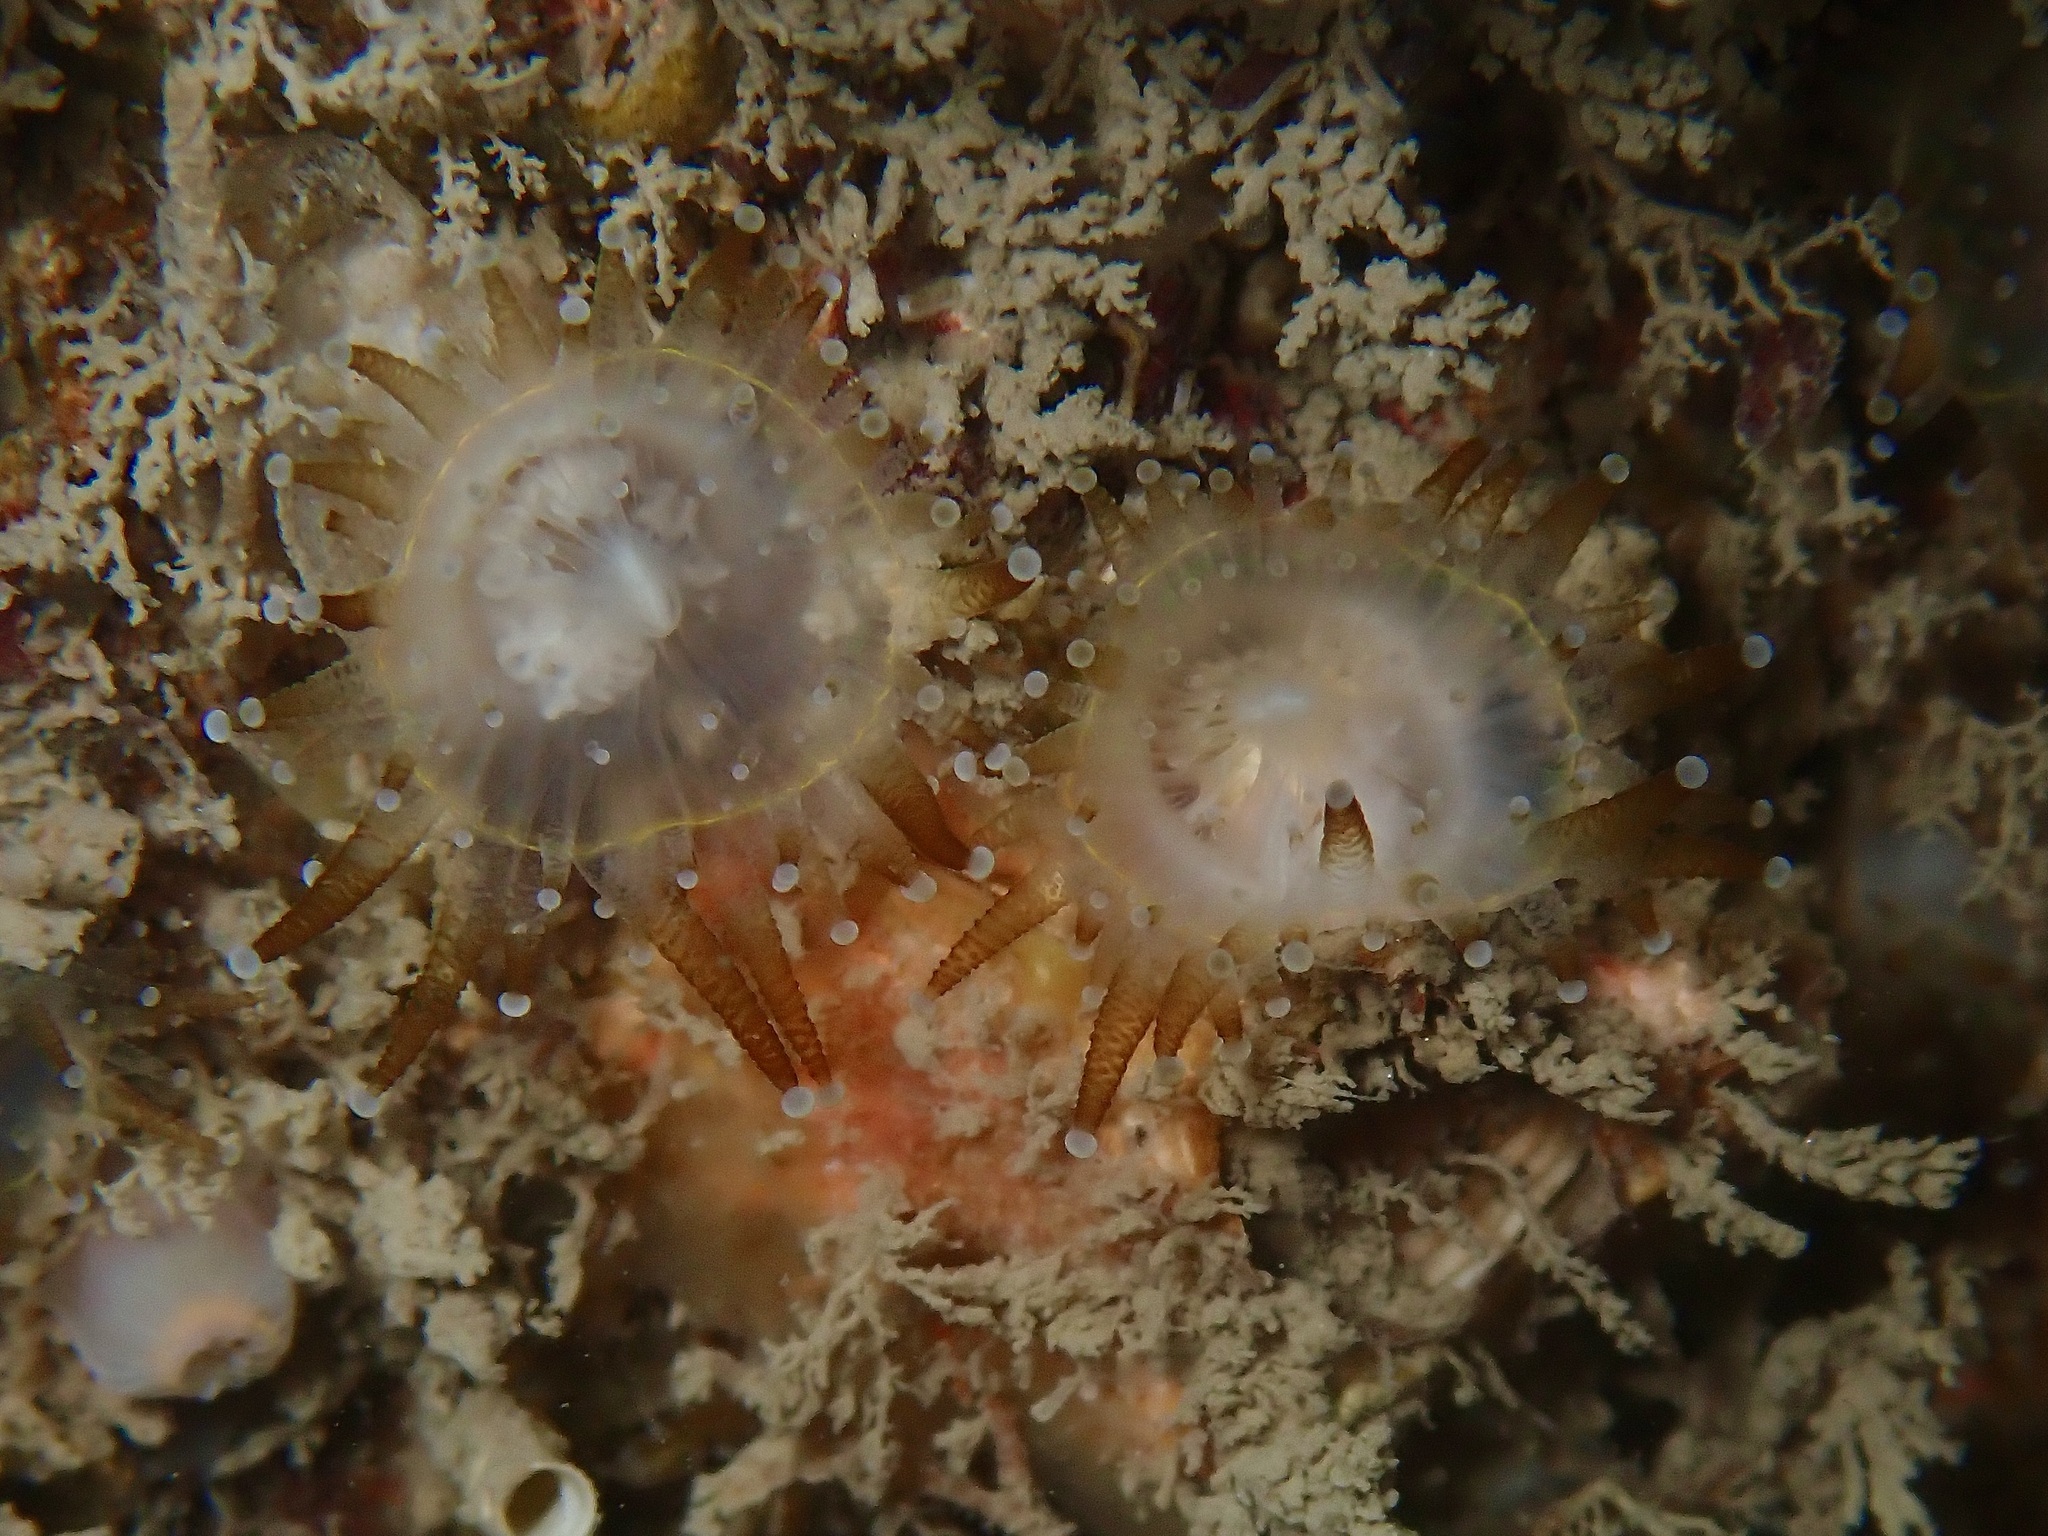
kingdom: Animalia
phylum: Cnidaria
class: Anthozoa
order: Corallimorpharia
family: Corallimorphidae
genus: Corynactis
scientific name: Corynactis viridis
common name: Jewel anemone
